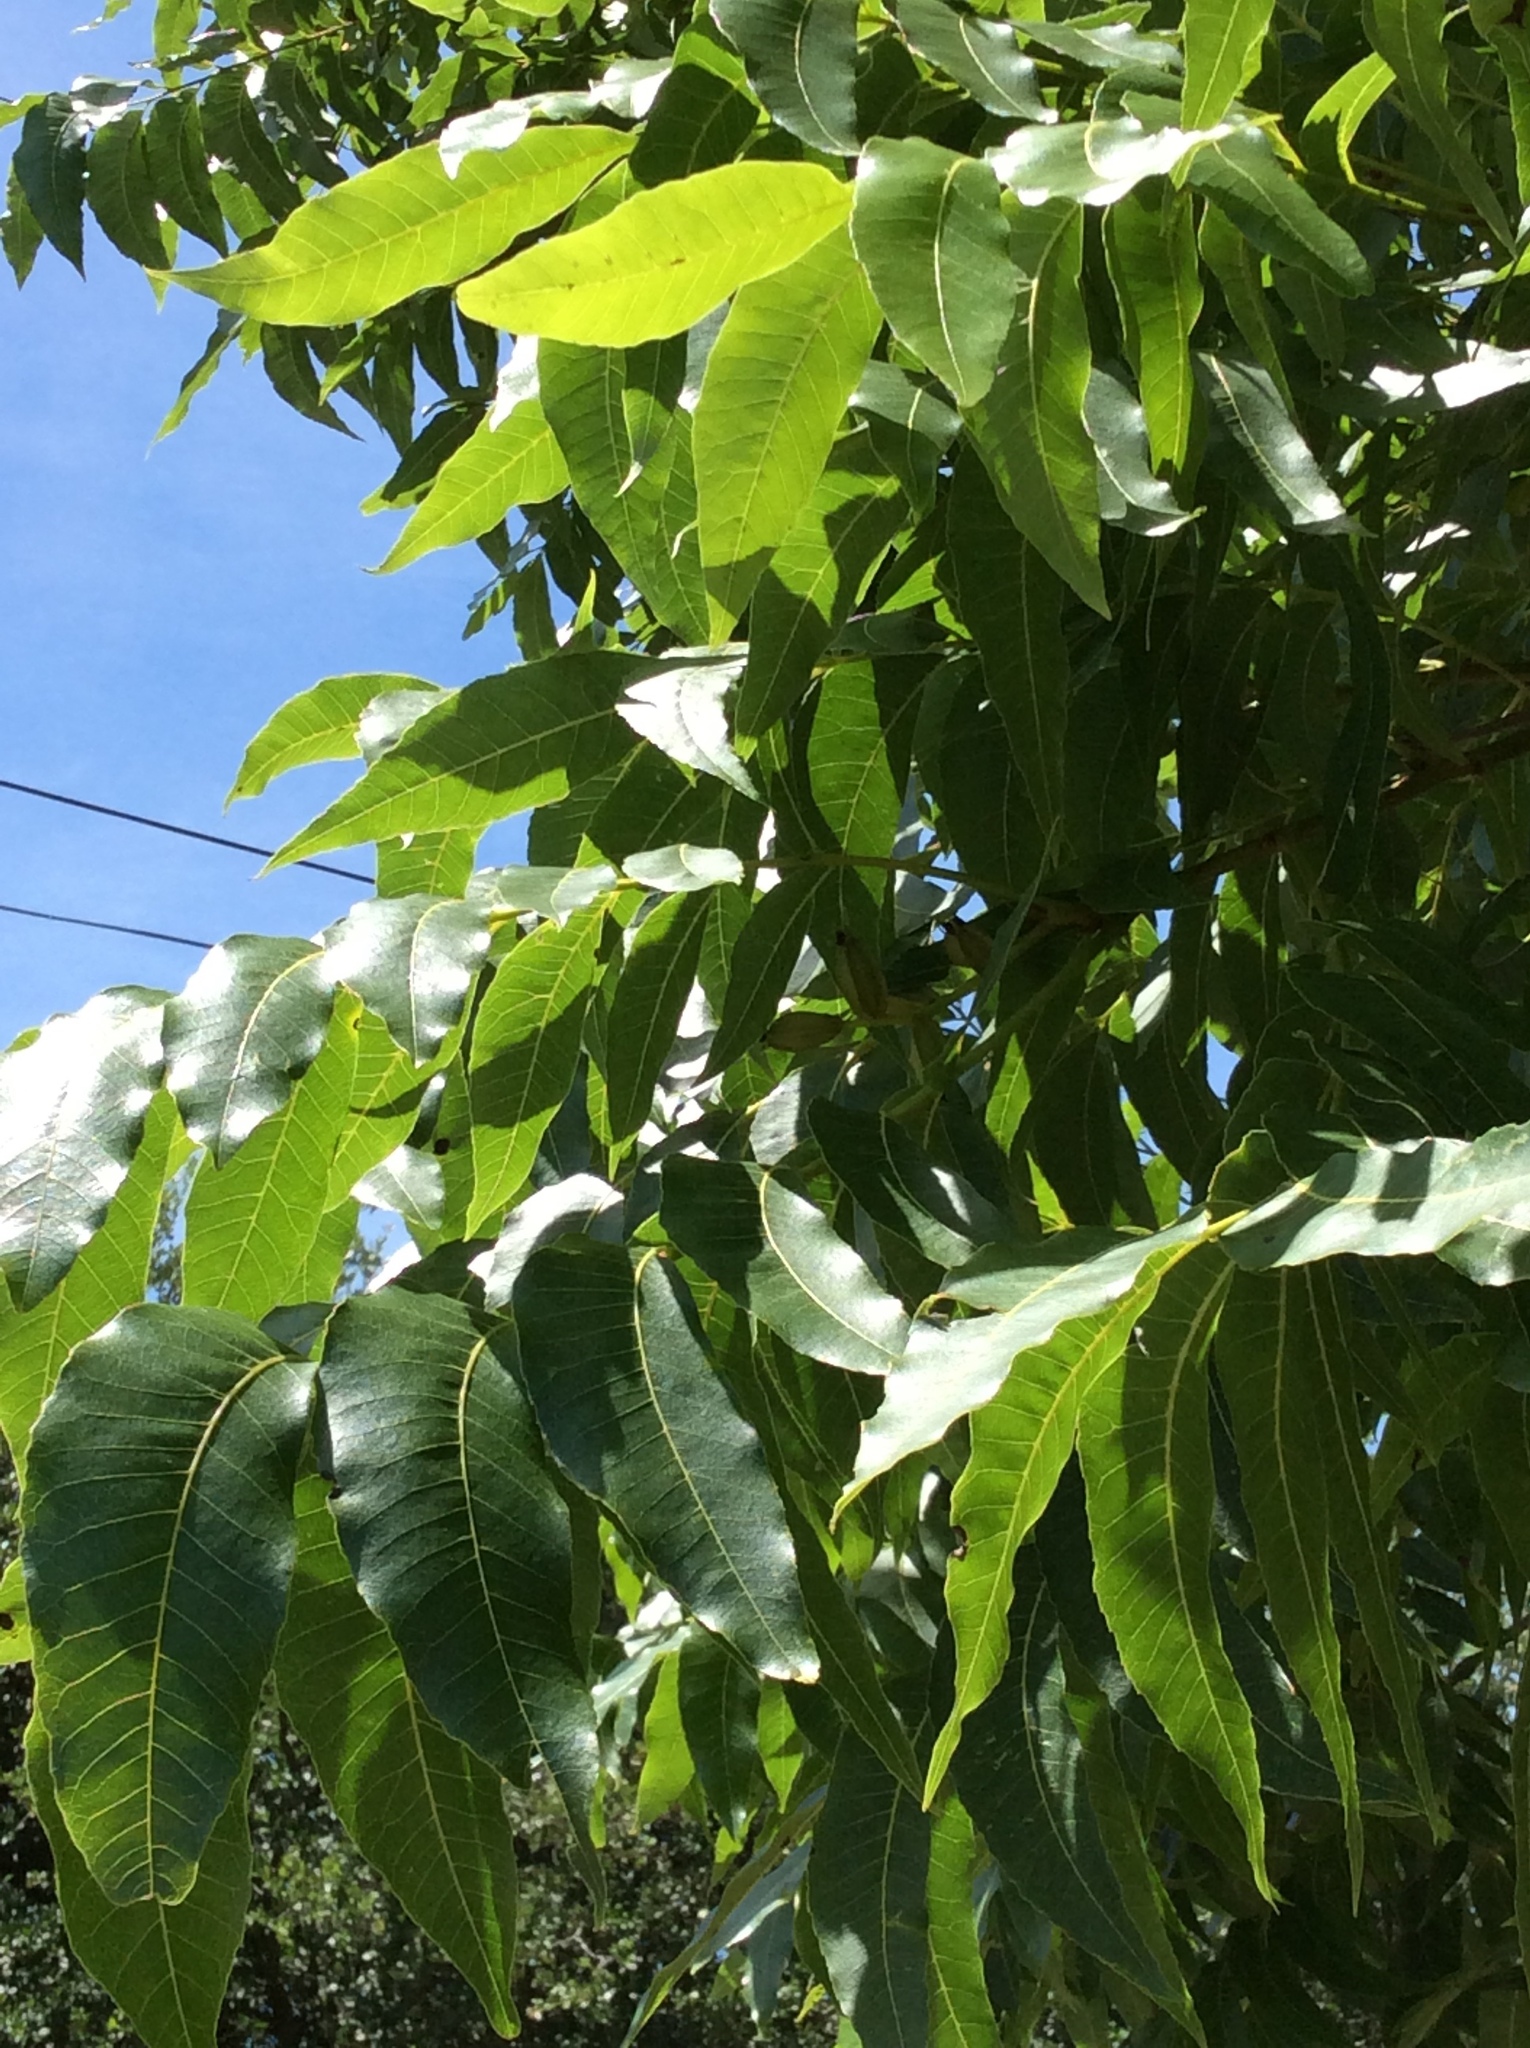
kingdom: Plantae
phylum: Tracheophyta
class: Magnoliopsida
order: Fagales
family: Juglandaceae
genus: Carya
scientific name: Carya illinoinensis
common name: Pecan
